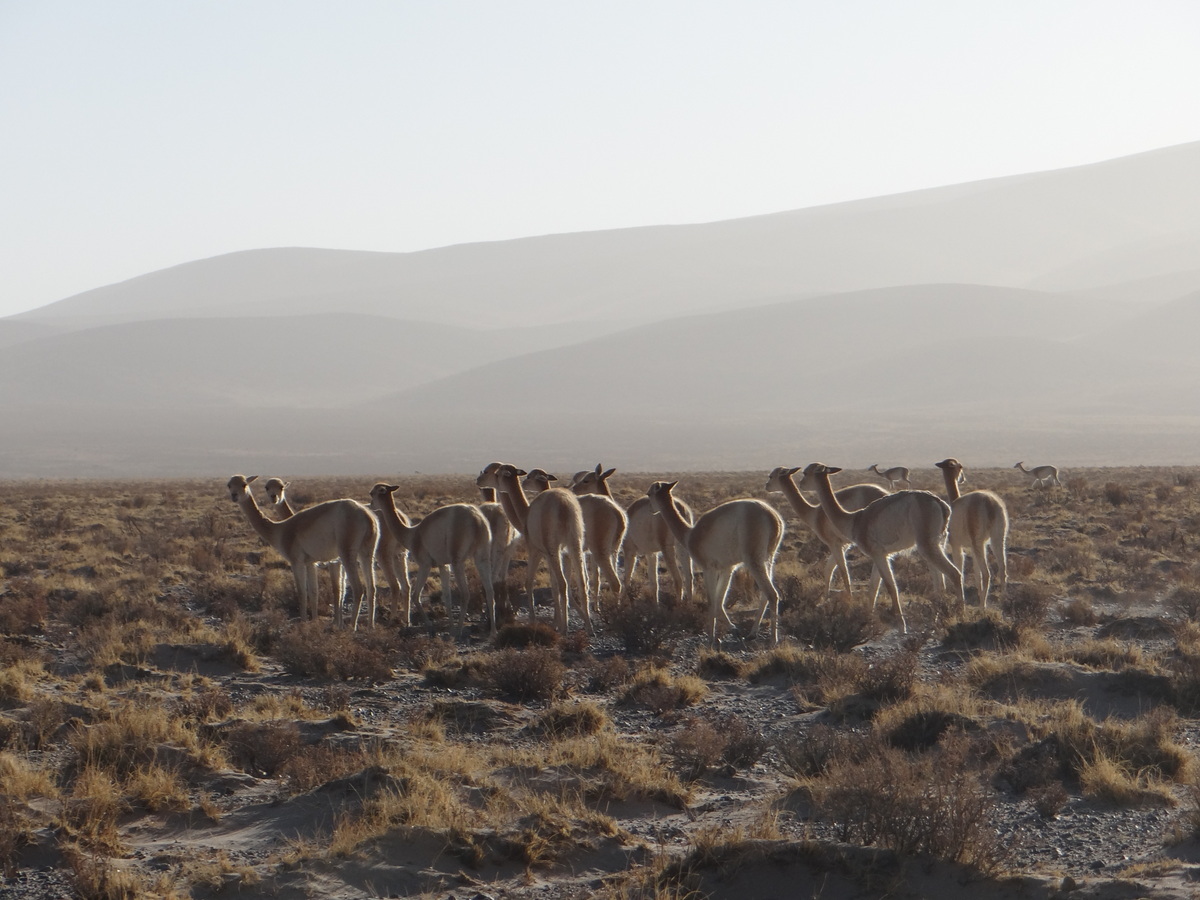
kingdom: Animalia
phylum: Chordata
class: Mammalia
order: Artiodactyla
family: Camelidae
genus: Vicugna
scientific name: Vicugna vicugna
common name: Vicugna
